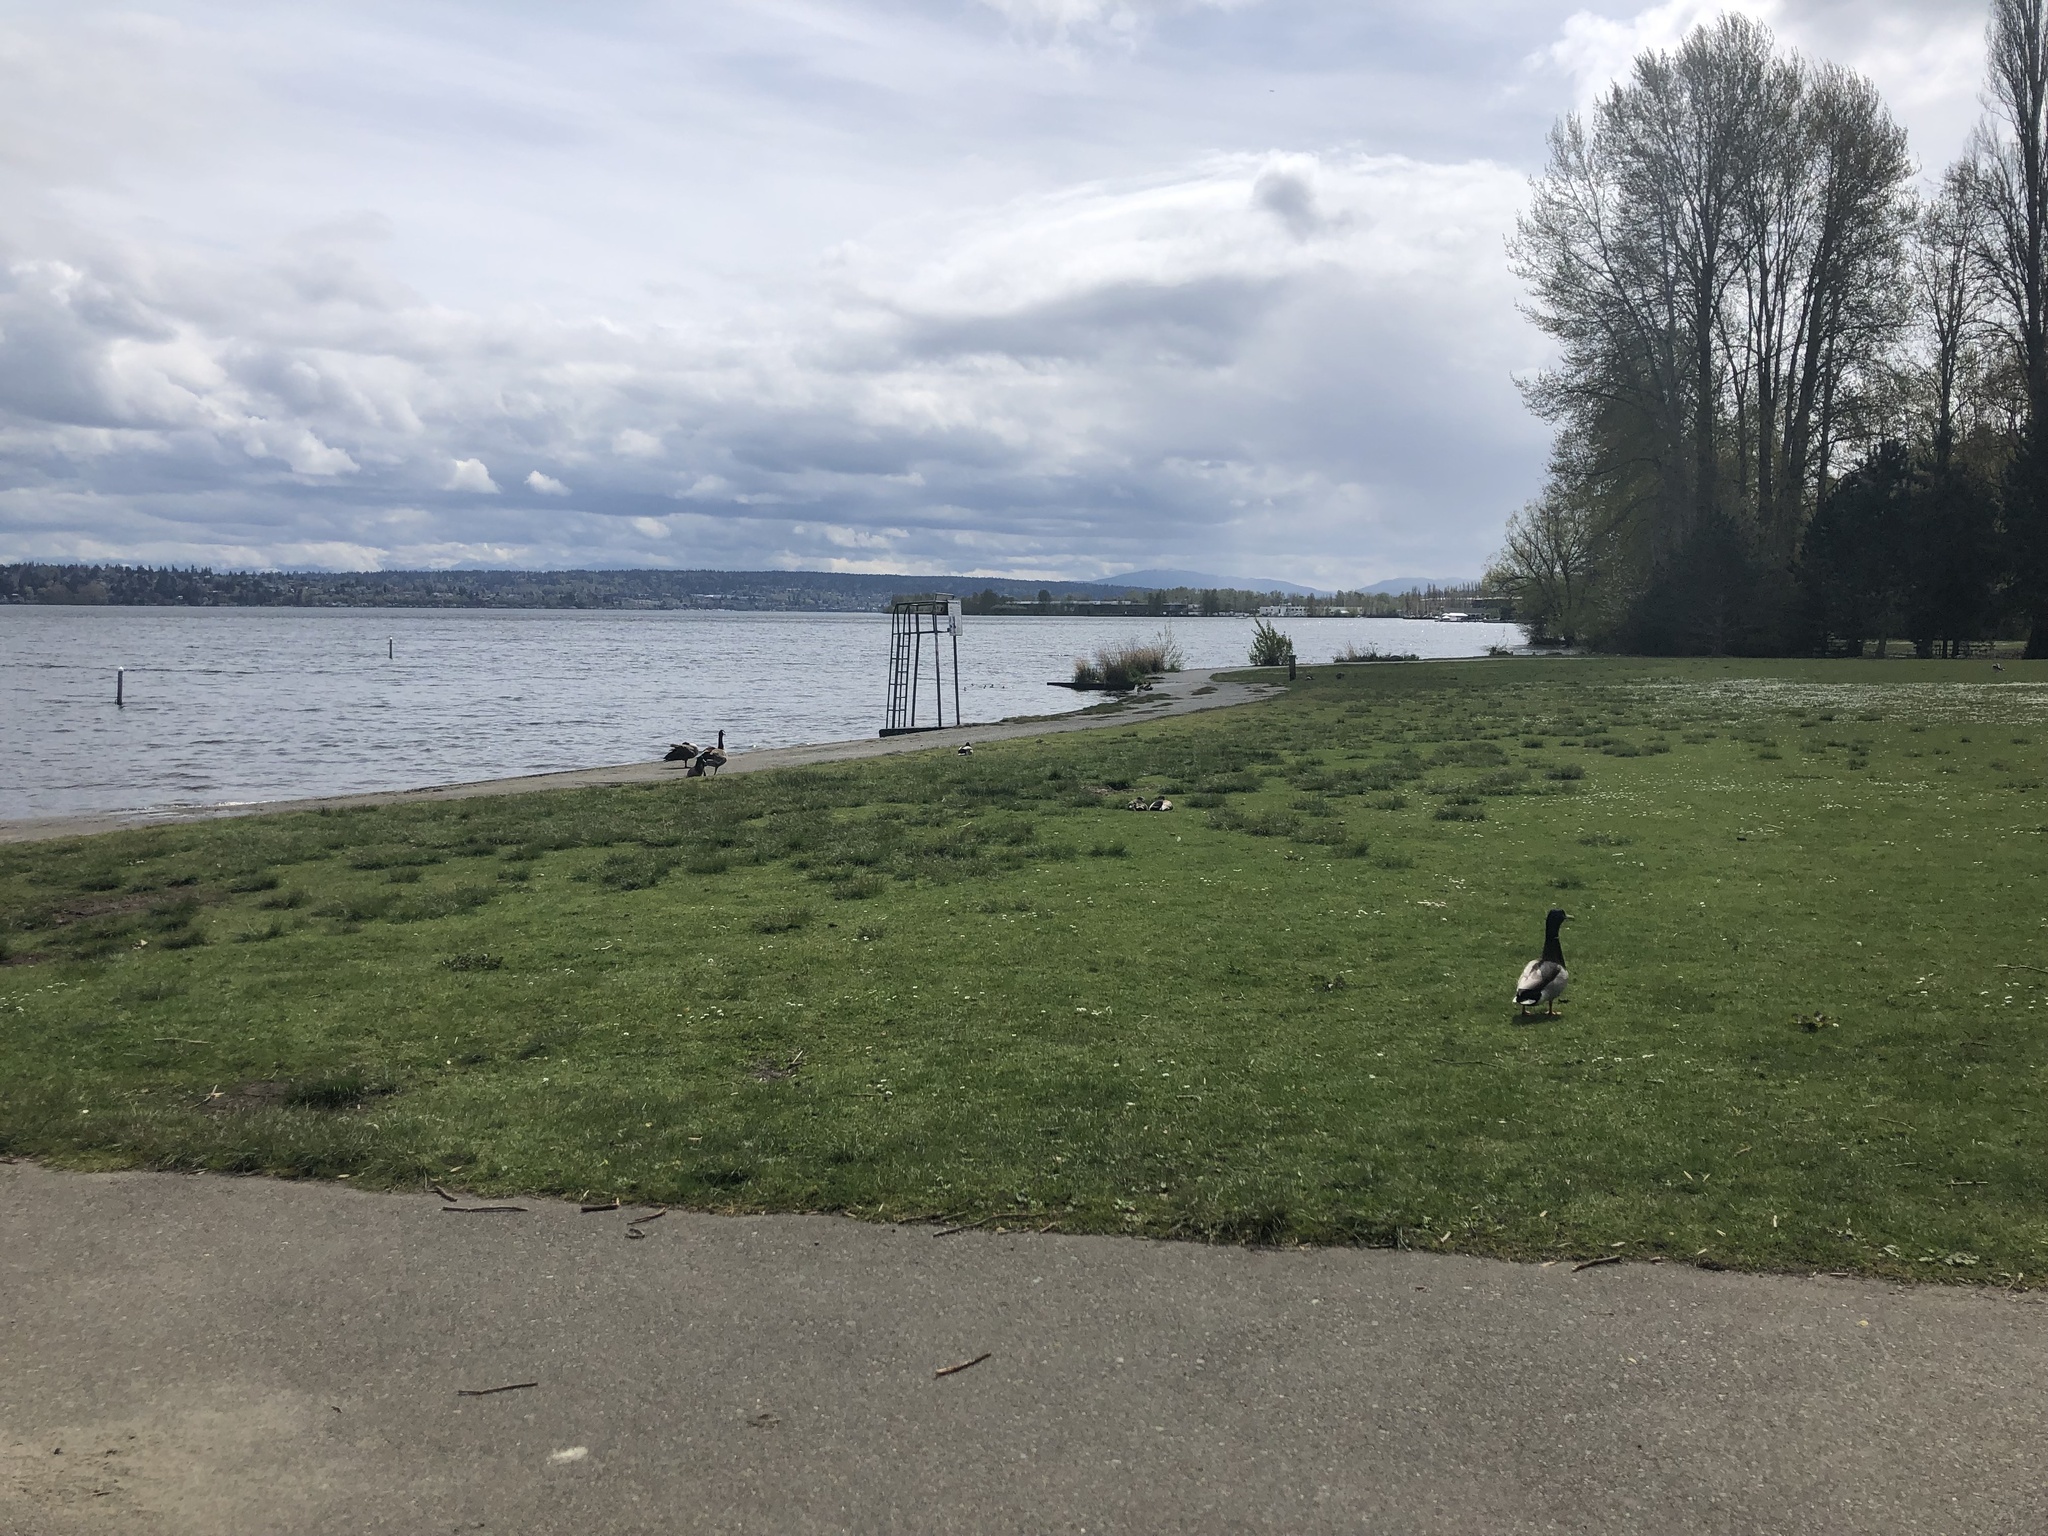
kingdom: Animalia
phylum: Chordata
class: Aves
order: Anseriformes
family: Anatidae
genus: Anas
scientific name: Anas platyrhynchos
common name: Mallard
